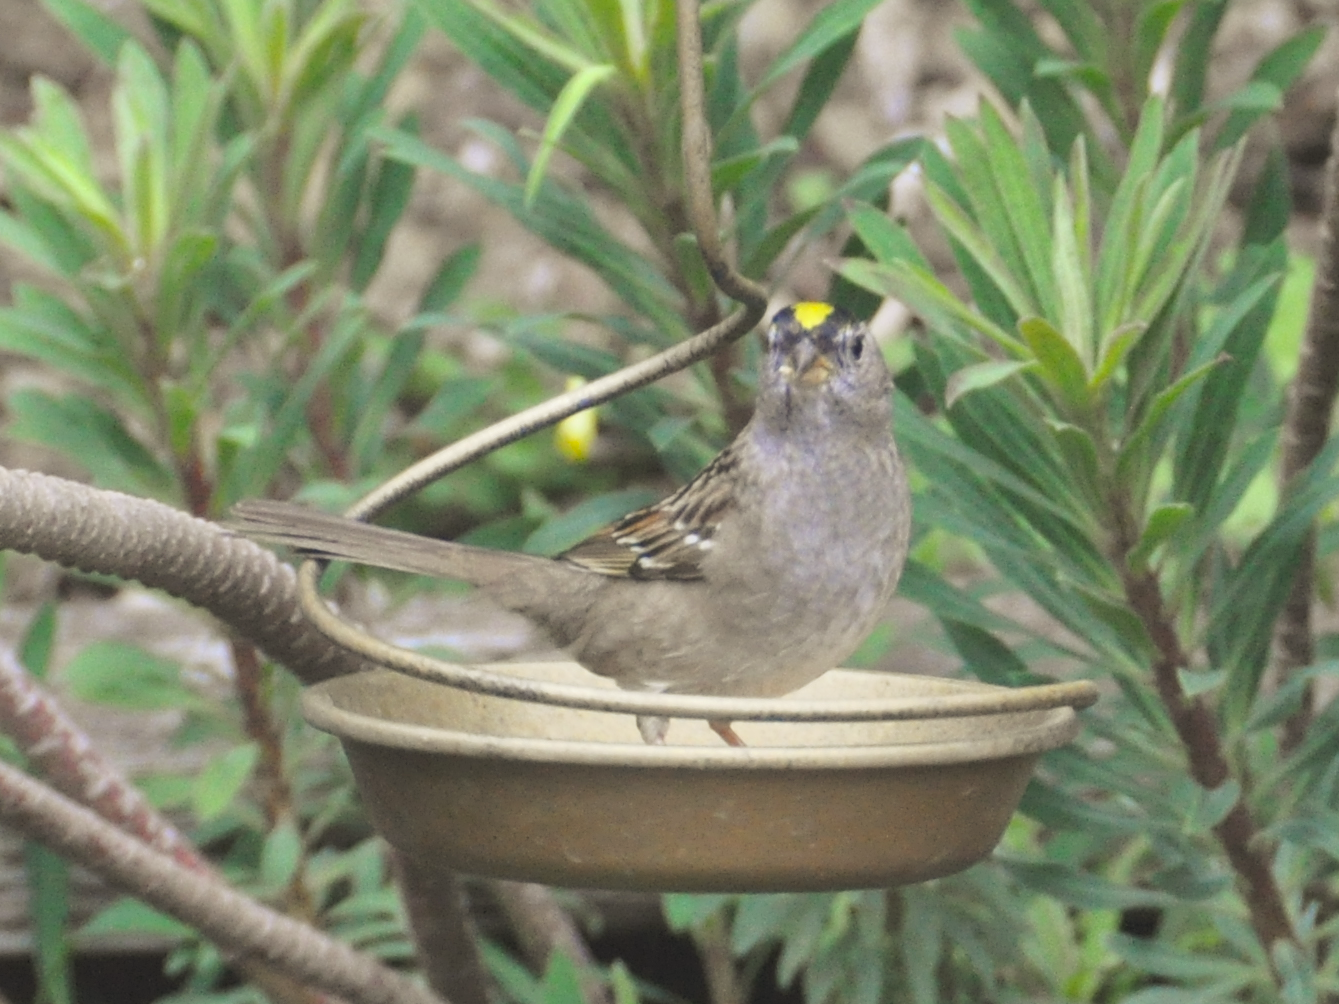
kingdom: Animalia
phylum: Chordata
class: Aves
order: Passeriformes
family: Passerellidae
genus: Zonotrichia
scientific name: Zonotrichia atricapilla
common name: Golden-crowned sparrow
